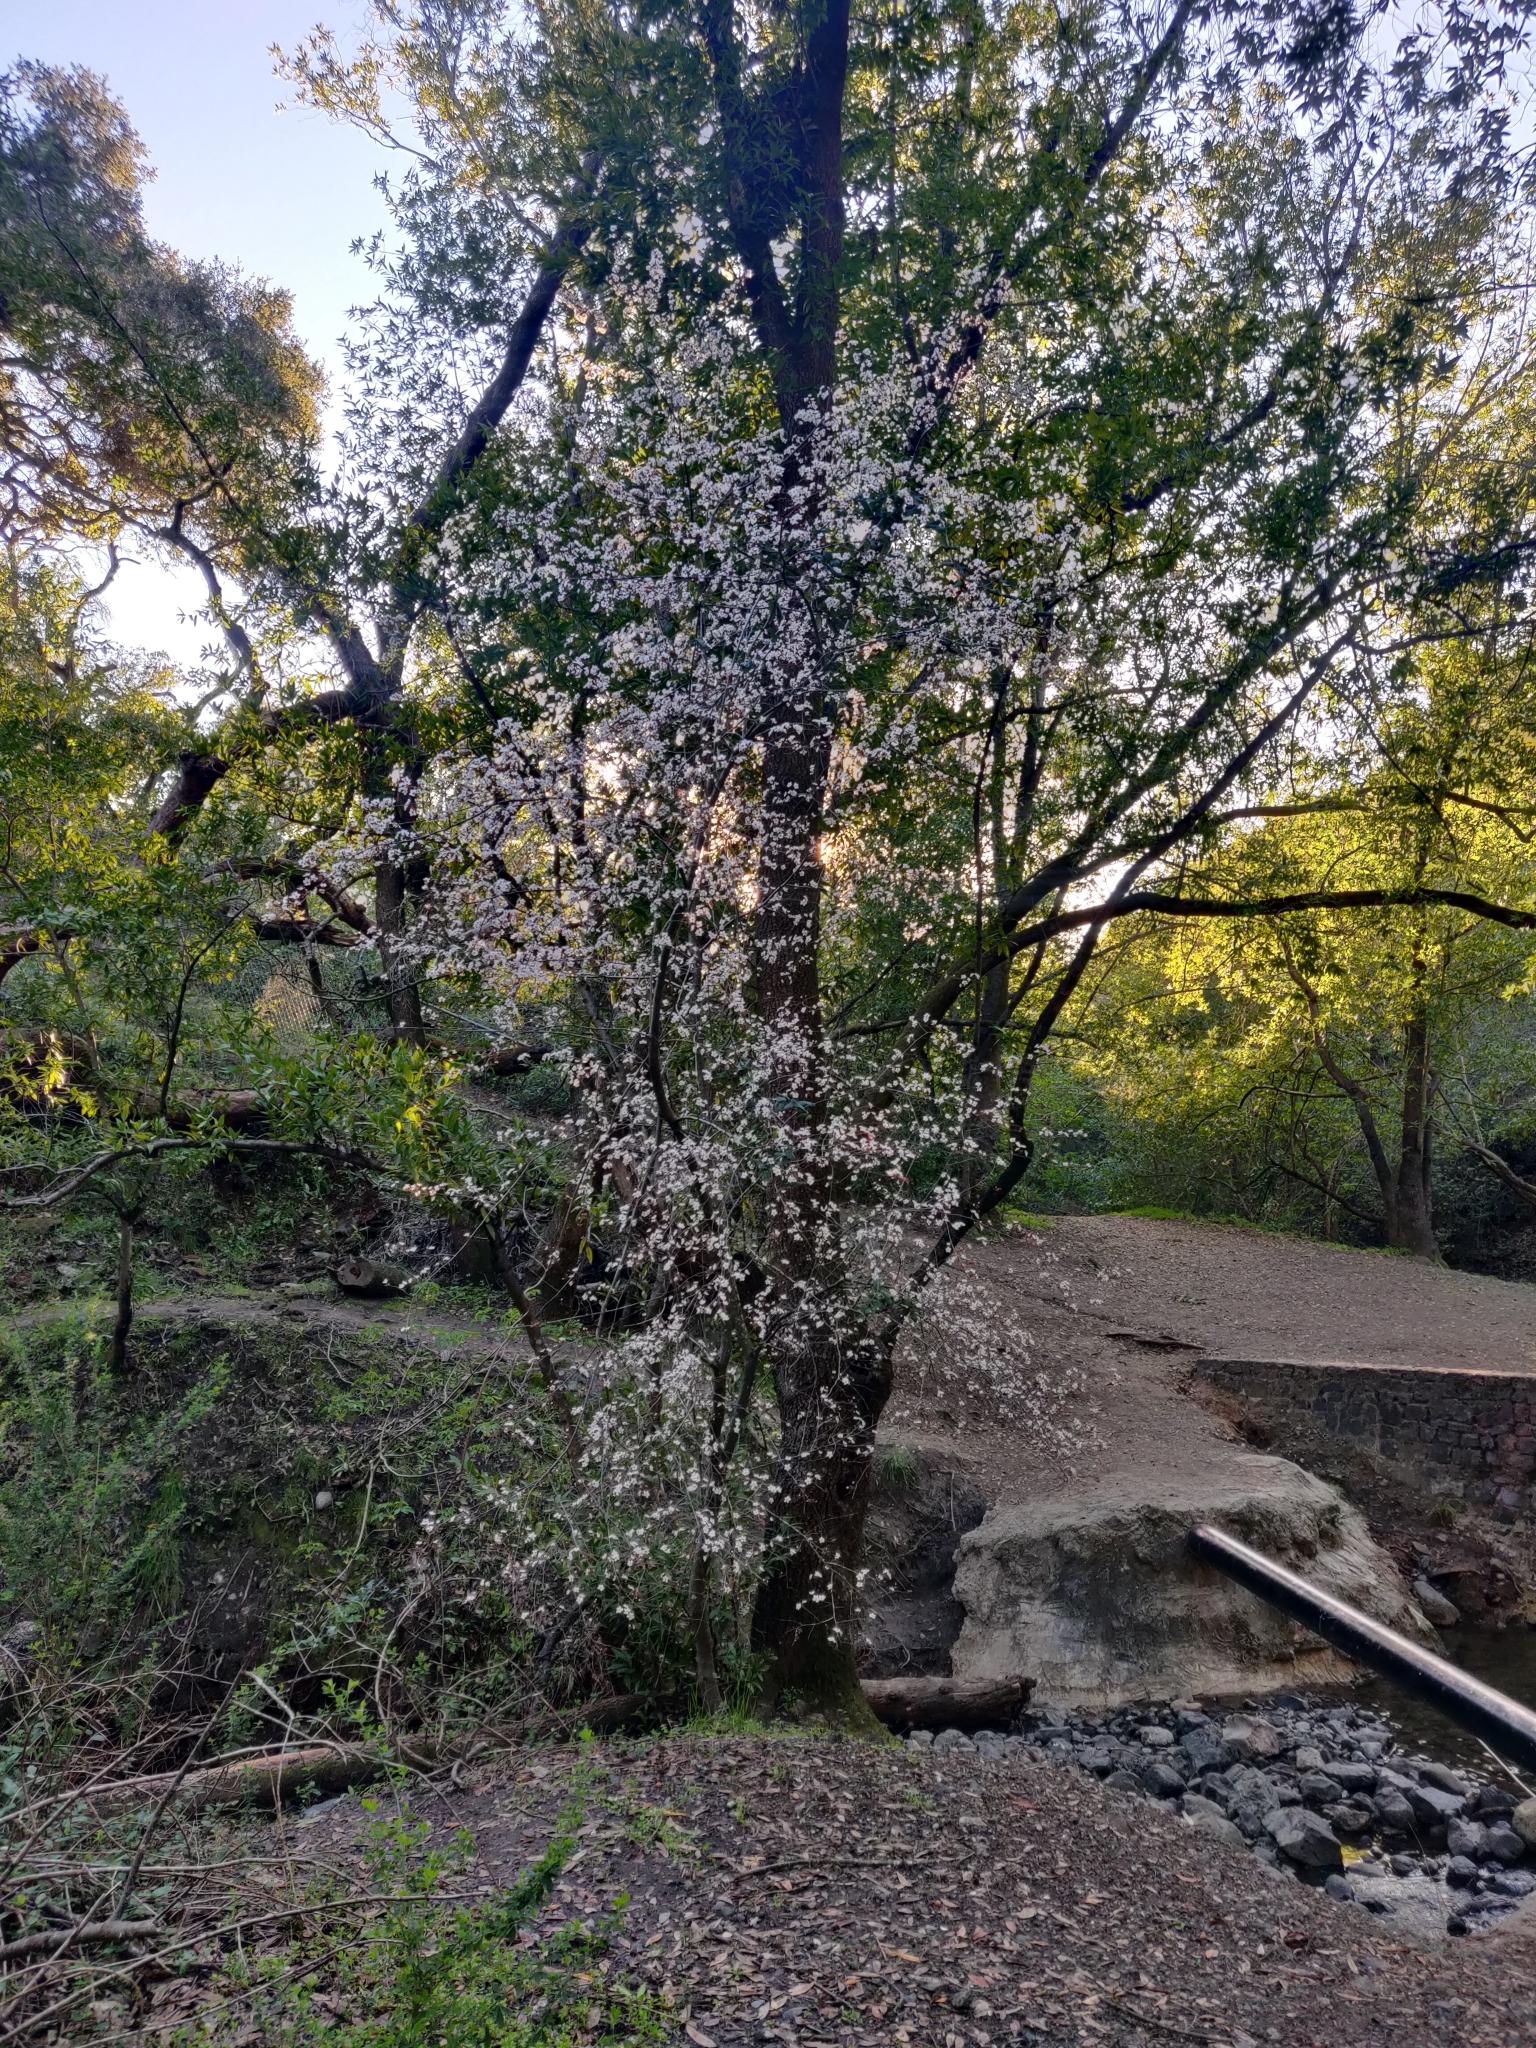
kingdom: Plantae
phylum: Tracheophyta
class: Magnoliopsida
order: Rosales
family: Rosaceae
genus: Prunus
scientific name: Prunus cerasifera
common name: Cherry plum
